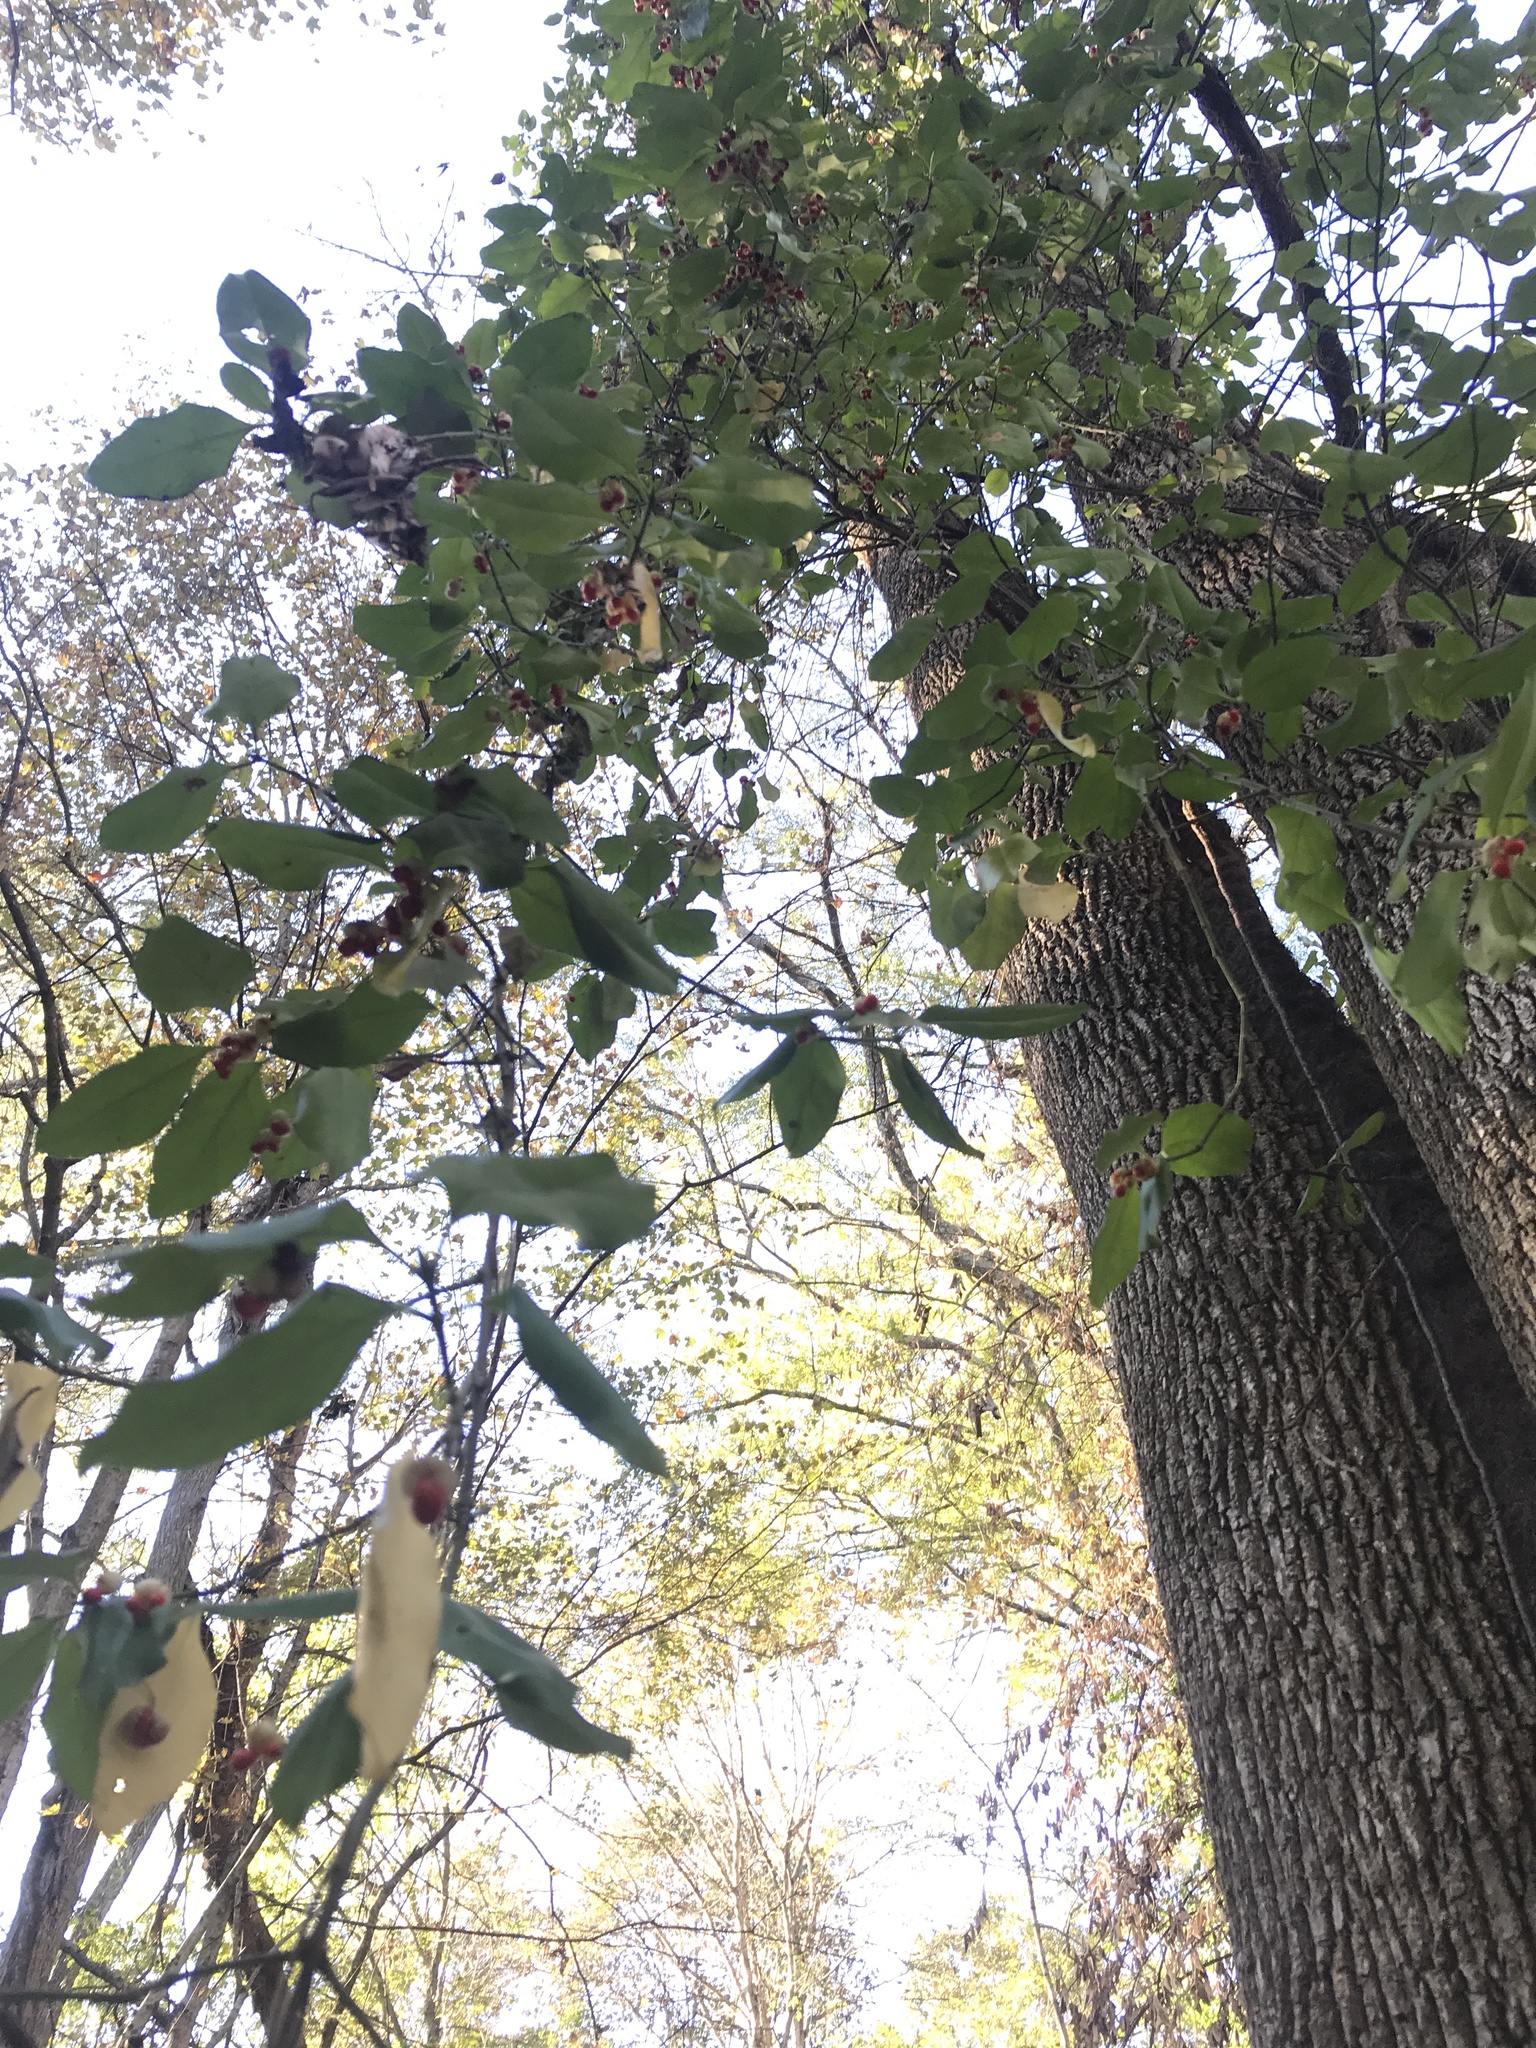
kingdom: Plantae
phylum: Tracheophyta
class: Magnoliopsida
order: Celastrales
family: Celastraceae
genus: Euonymus
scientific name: Euonymus fortunei
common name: Climbing euonymus
